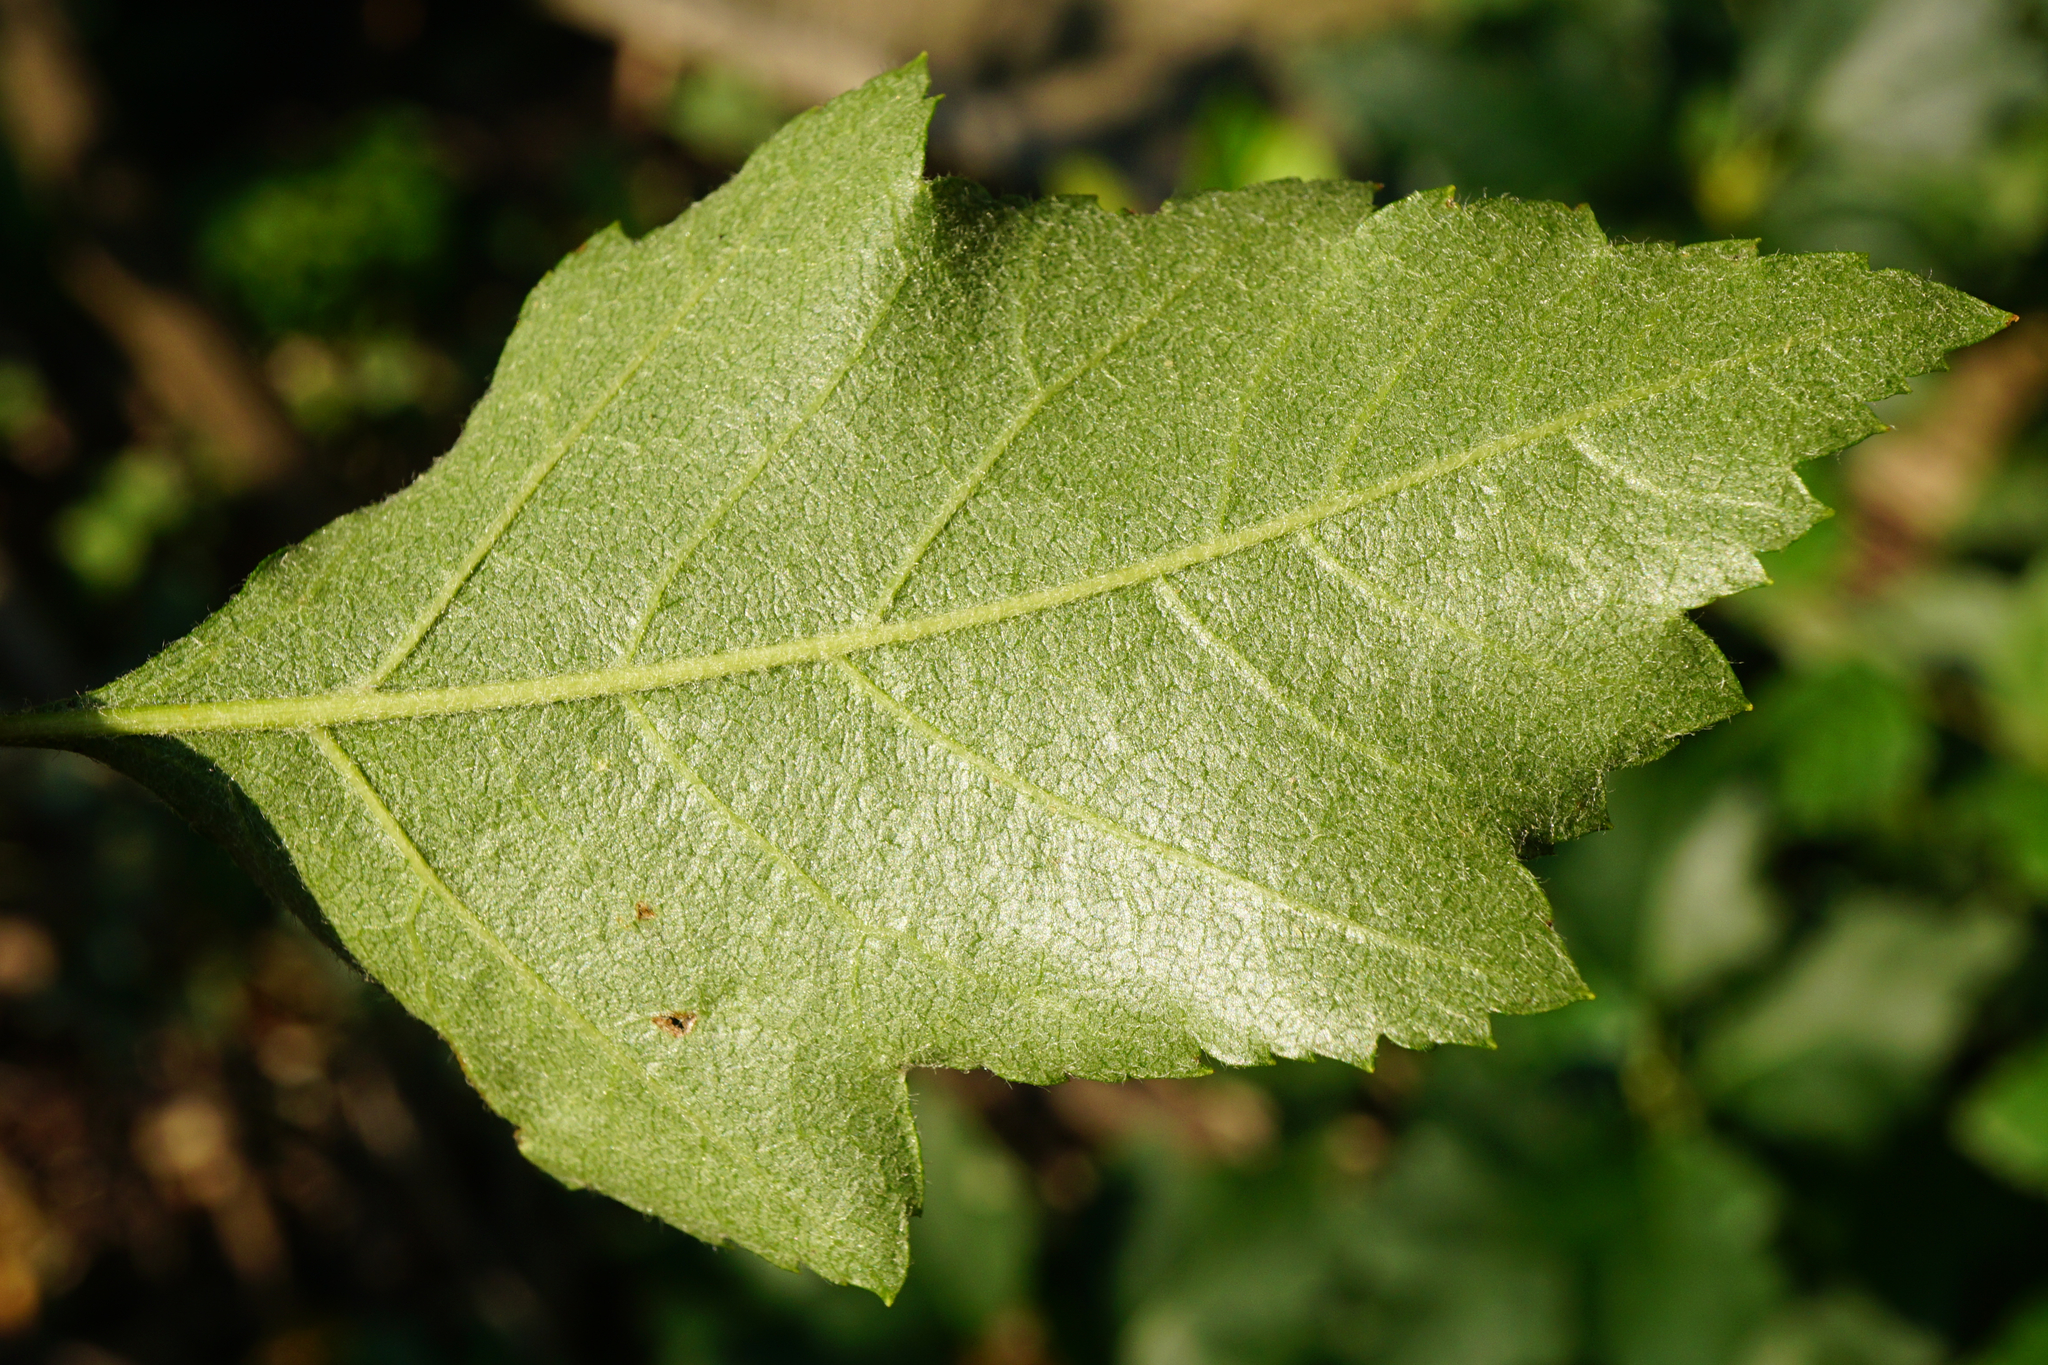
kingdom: Plantae
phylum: Tracheophyta
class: Magnoliopsida
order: Rosales
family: Rosaceae
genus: Torminalis
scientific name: Torminalis glaberrima
